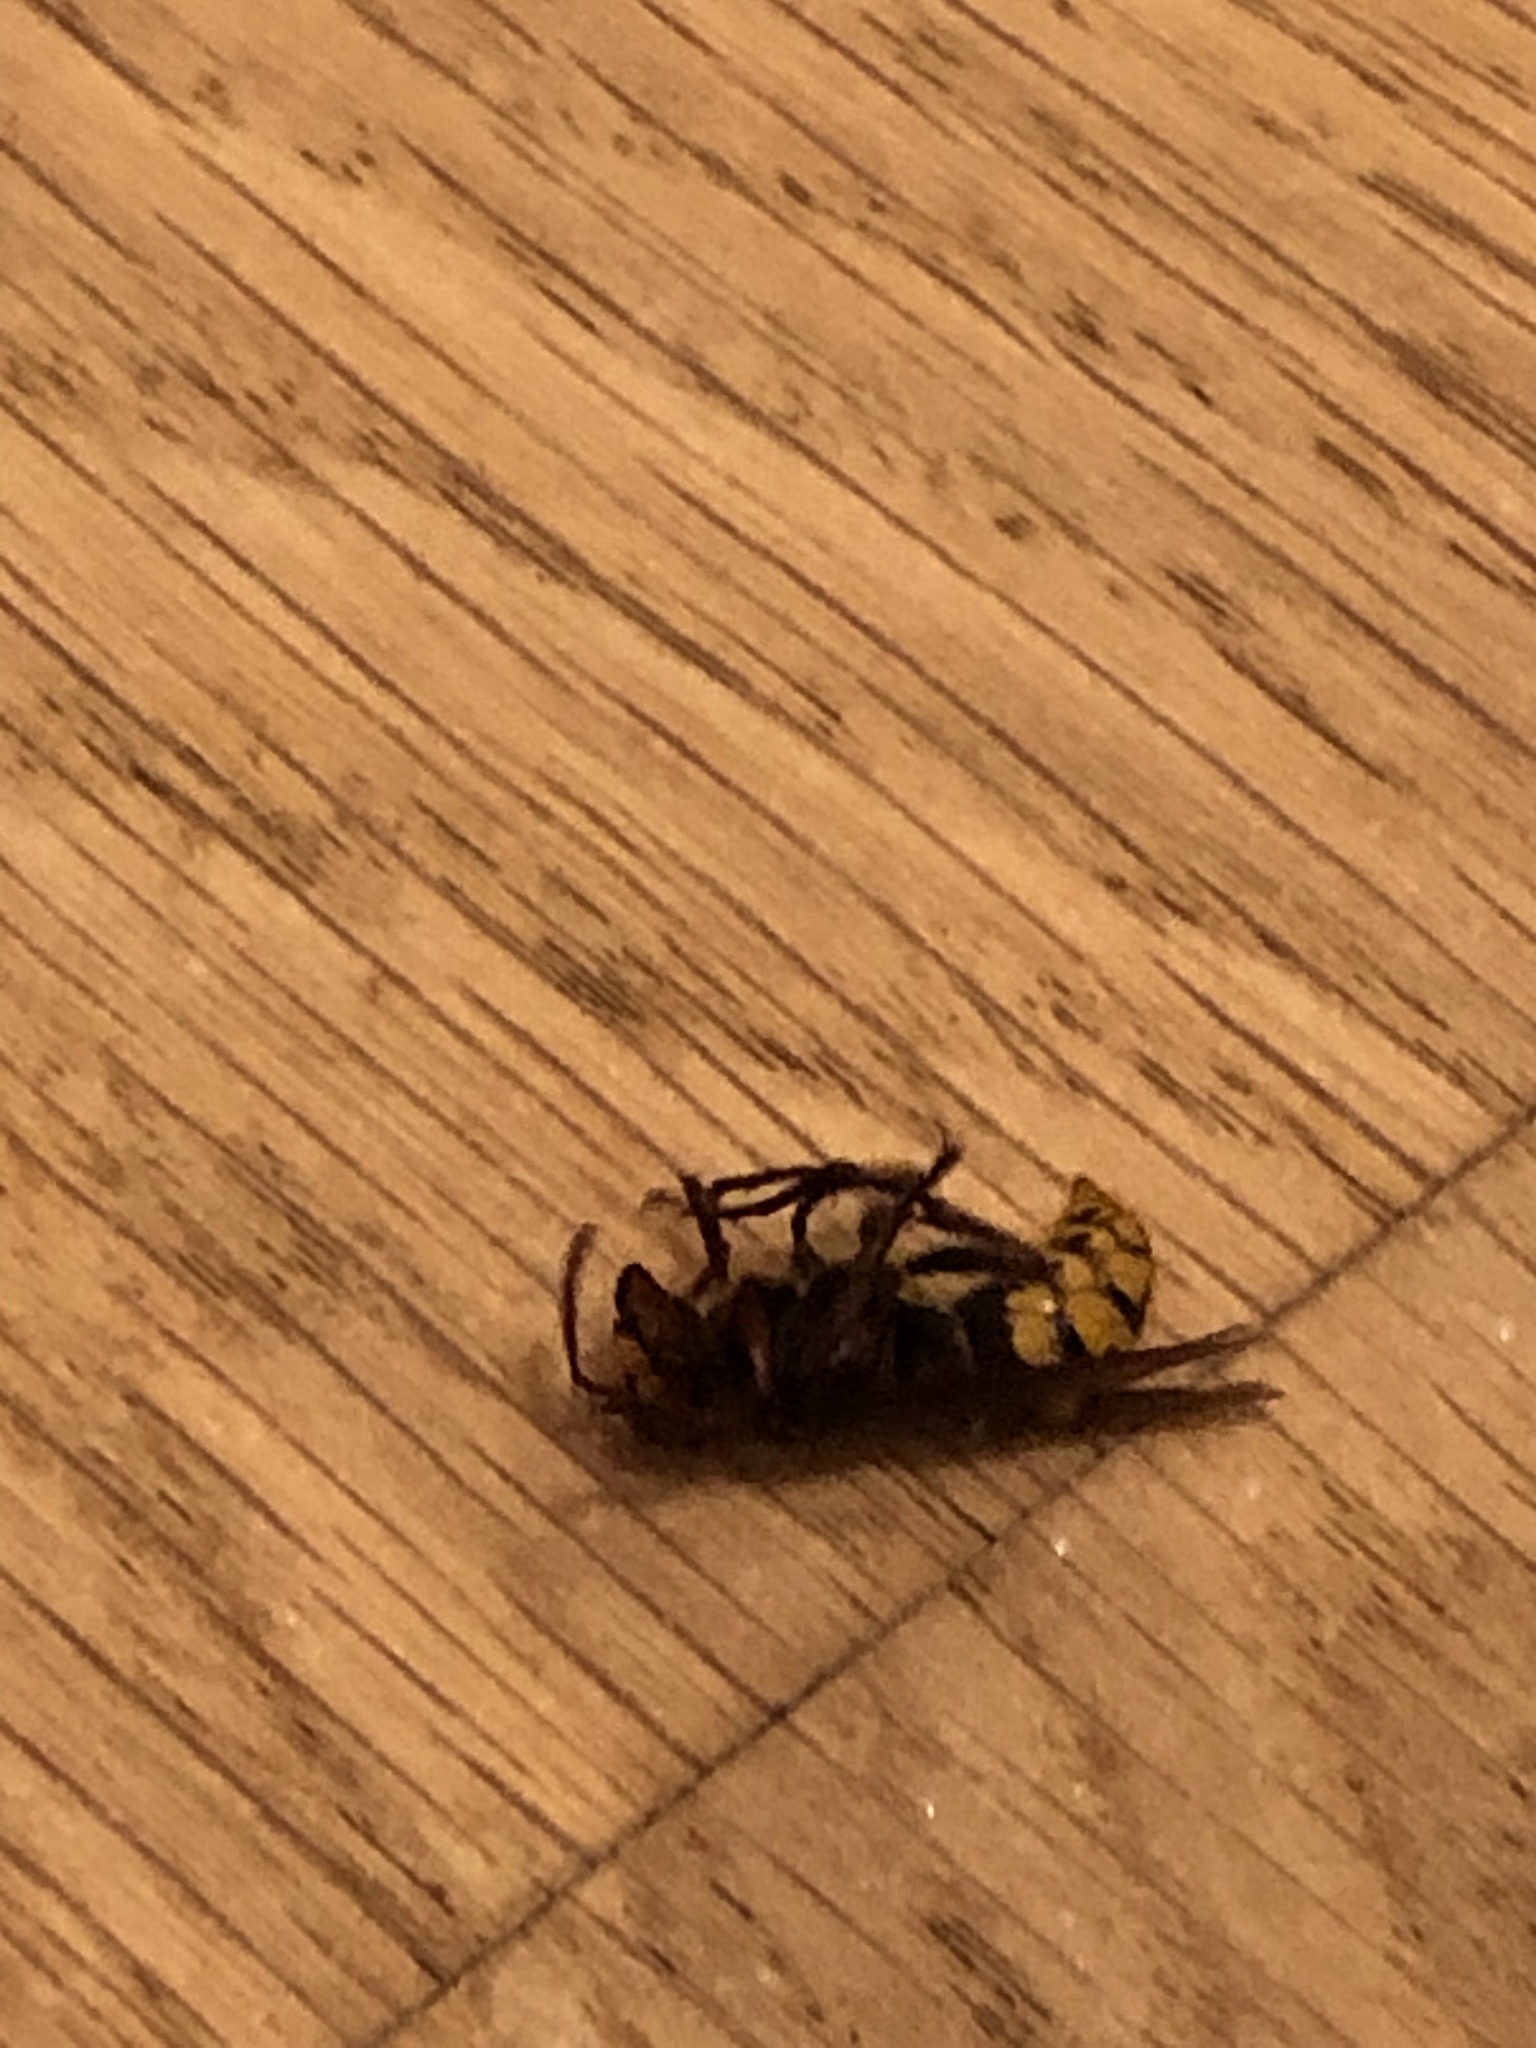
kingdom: Animalia
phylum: Arthropoda
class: Insecta
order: Hymenoptera
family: Vespidae
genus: Vespa
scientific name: Vespa crabro
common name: Hornet
